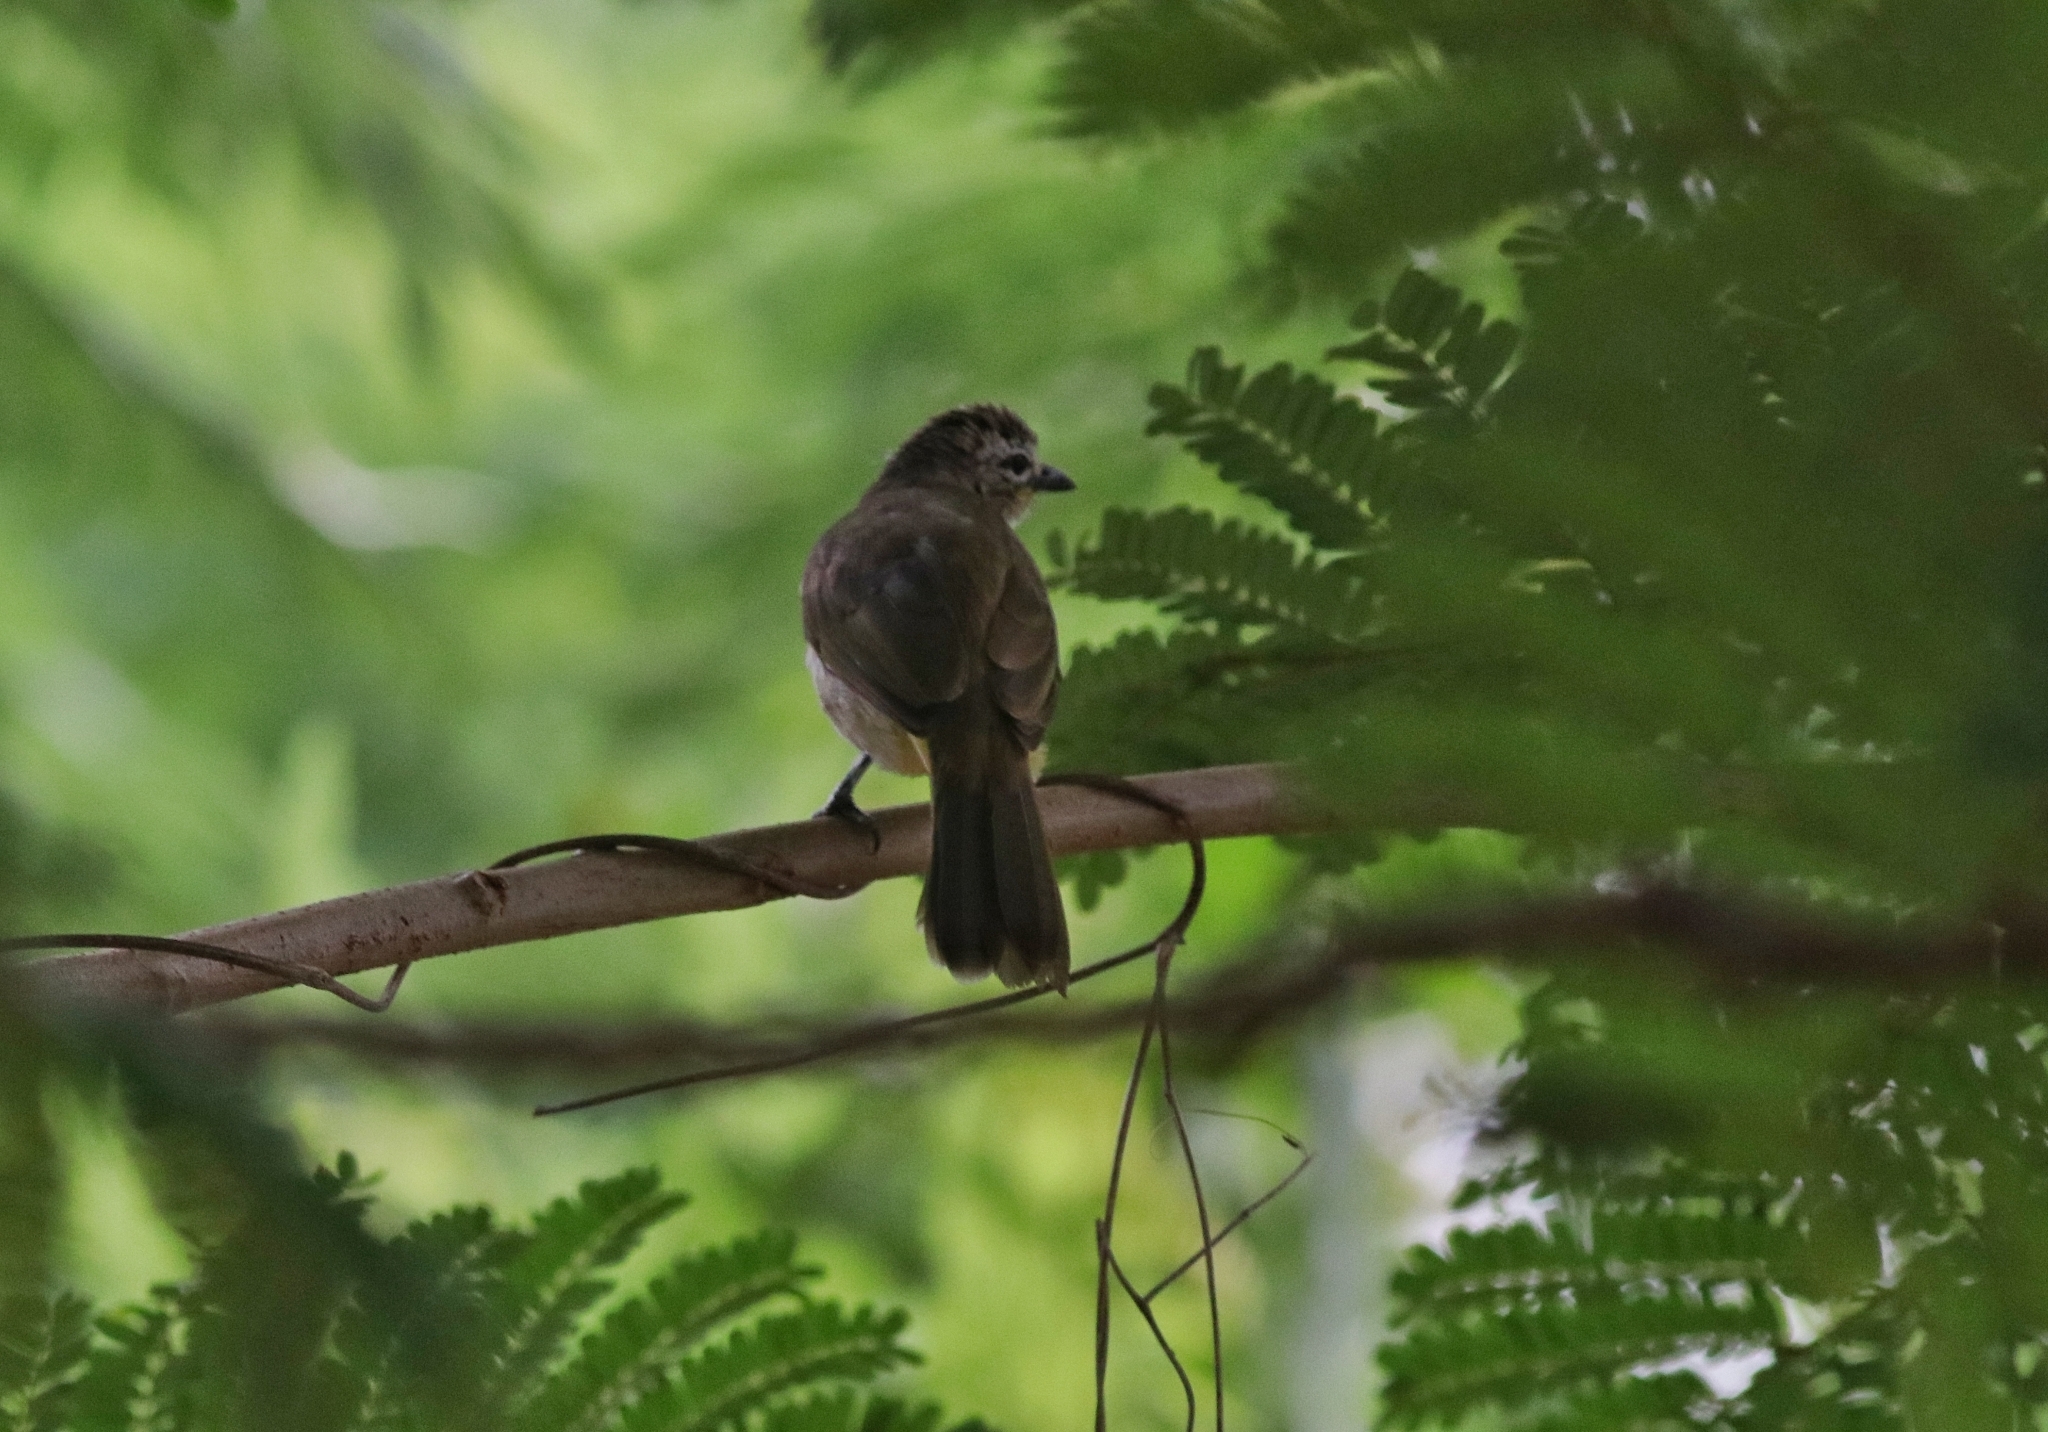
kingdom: Animalia
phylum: Chordata
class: Aves
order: Passeriformes
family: Pycnonotidae
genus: Pycnonotus
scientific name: Pycnonotus luteolus
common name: White-browed bulbul
